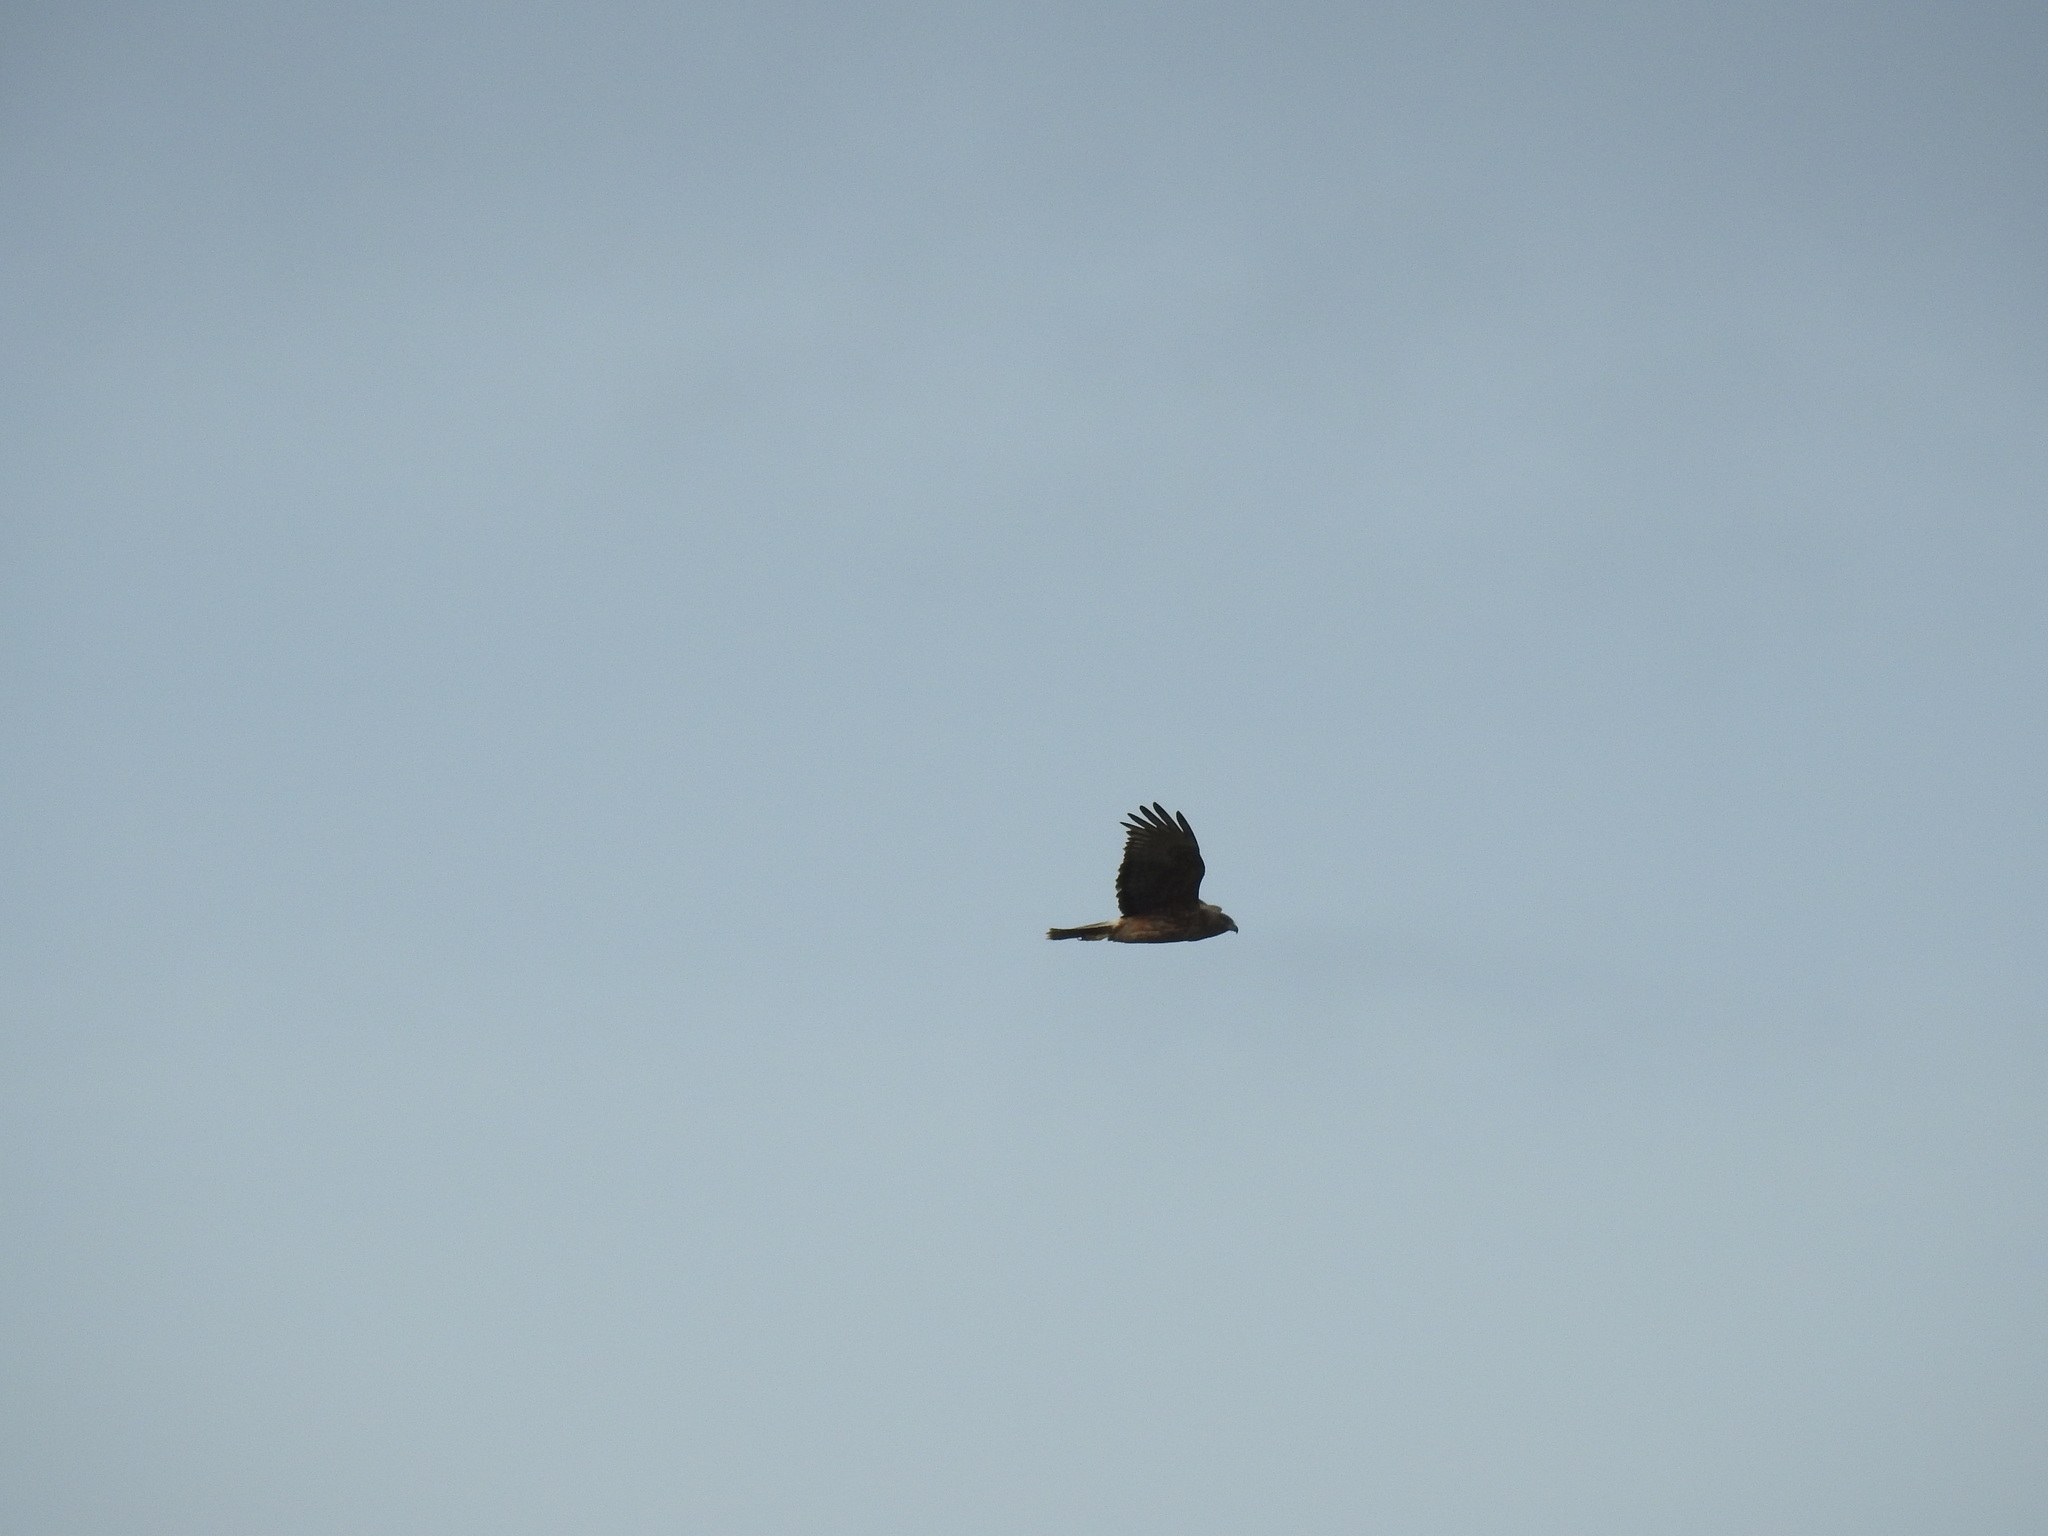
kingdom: Animalia
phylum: Chordata
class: Aves
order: Accipitriformes
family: Accipitridae
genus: Circus
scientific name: Circus approximans
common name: Swamp harrier
